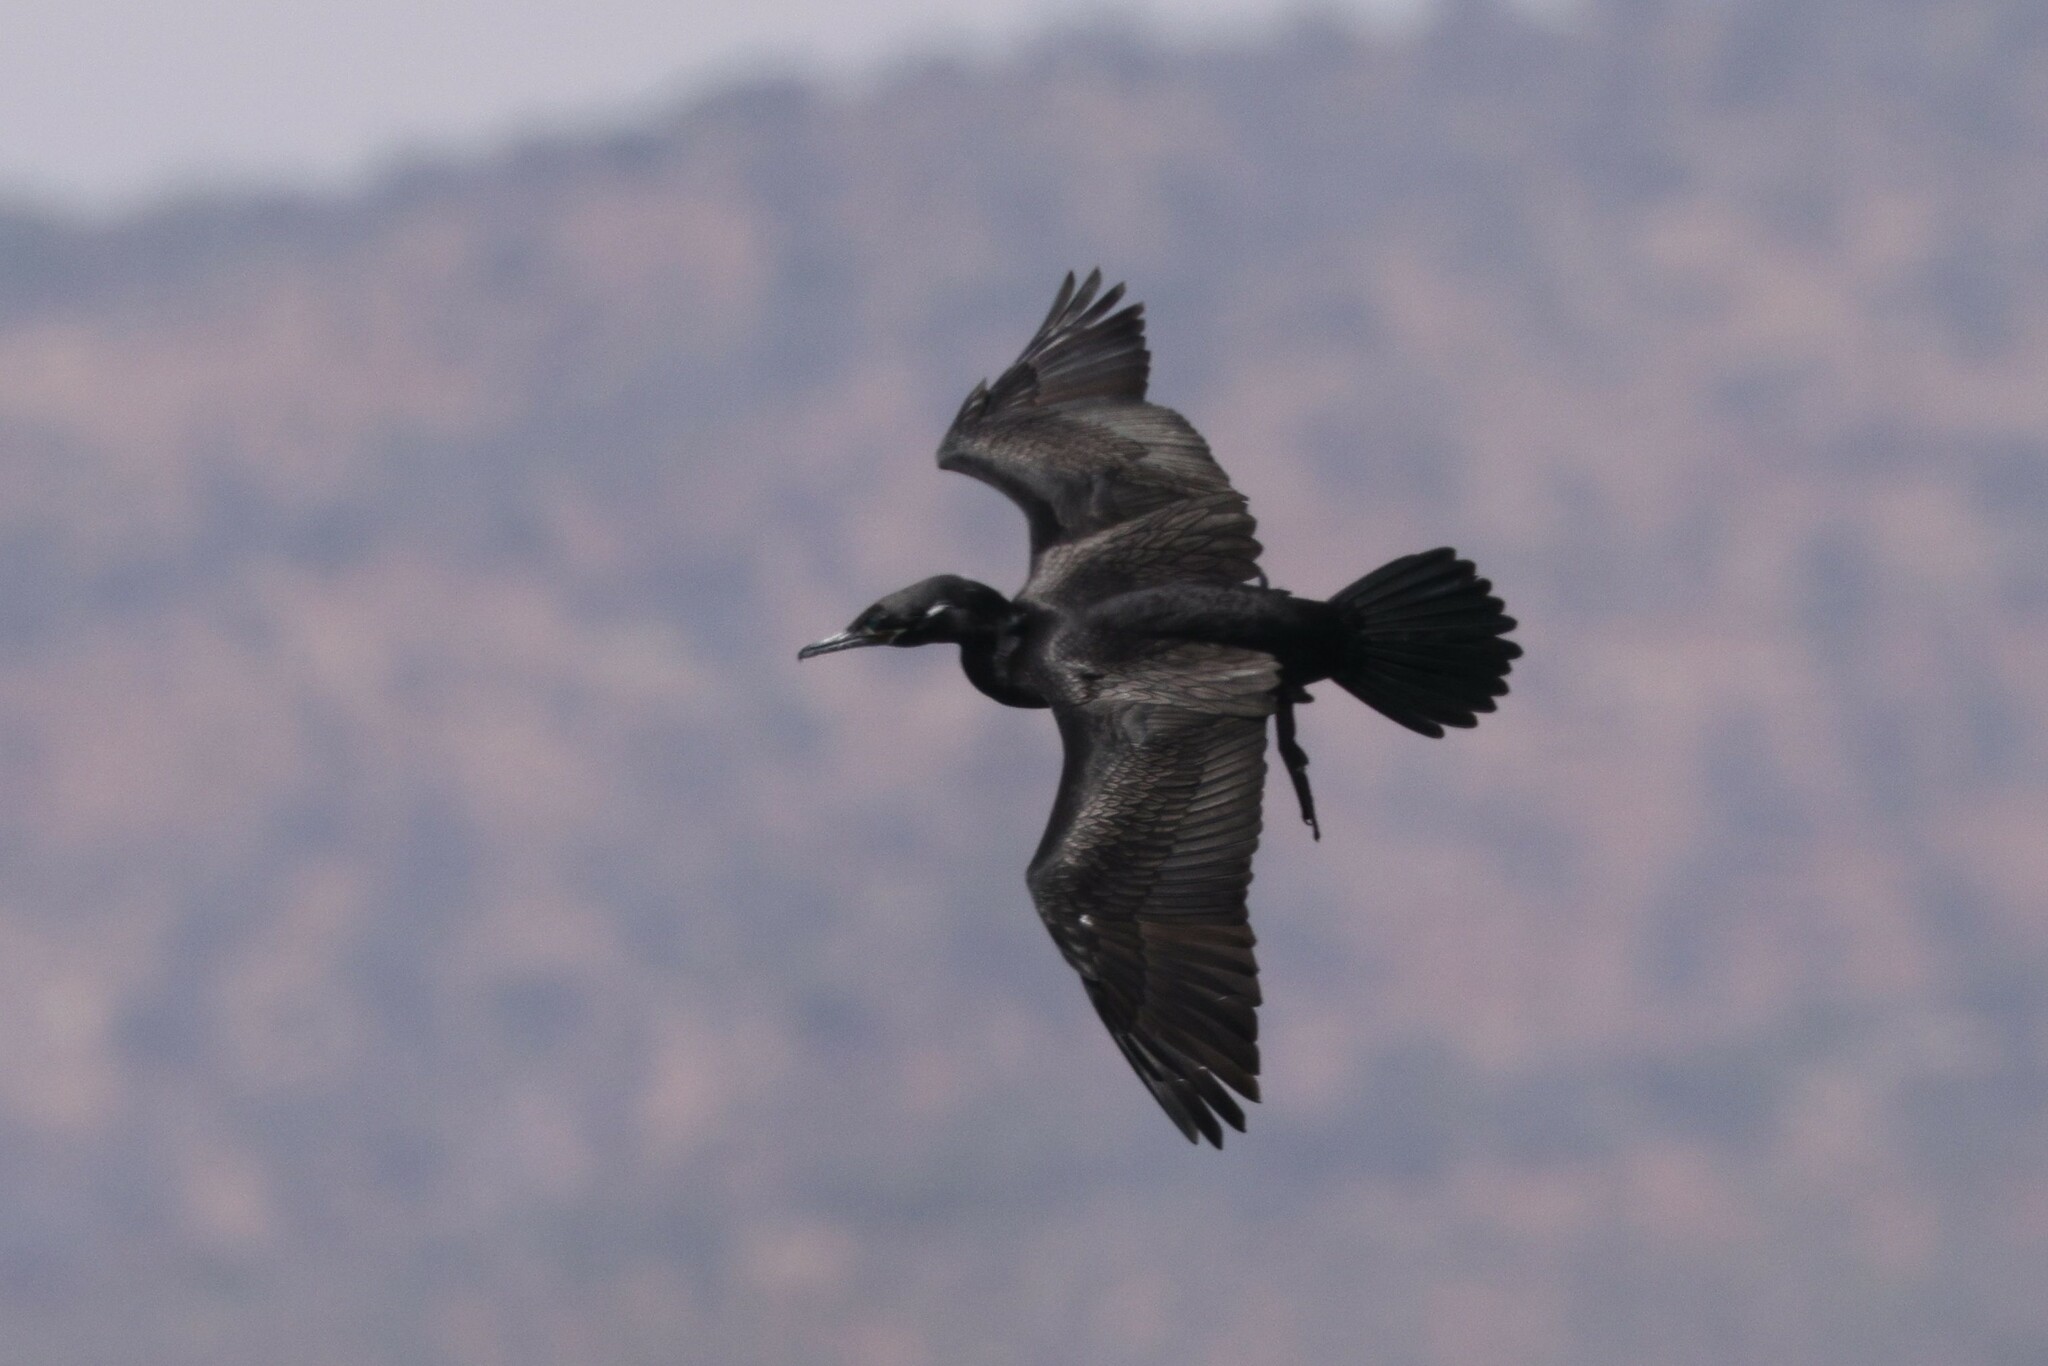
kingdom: Animalia
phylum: Chordata
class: Aves
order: Suliformes
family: Phalacrocoracidae
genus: Phalacrocorax
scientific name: Phalacrocorax brasilianus
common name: Neotropic cormorant
